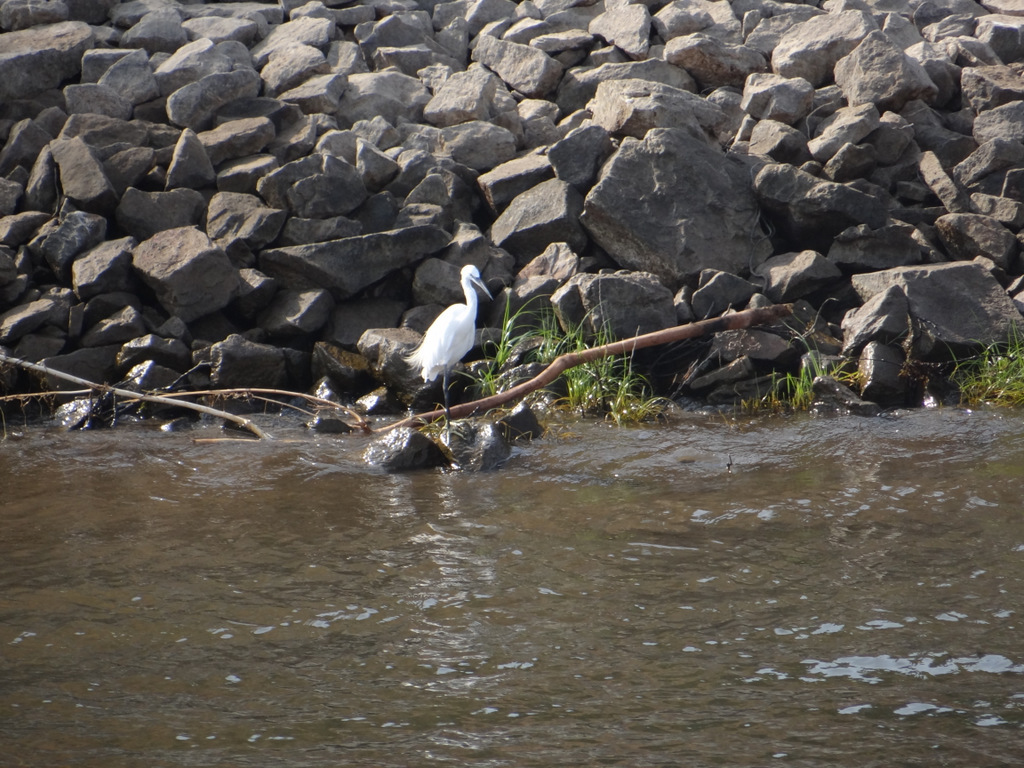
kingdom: Animalia
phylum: Chordata
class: Aves
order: Pelecaniformes
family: Ardeidae
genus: Egretta
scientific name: Egretta garzetta
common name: Little egret
